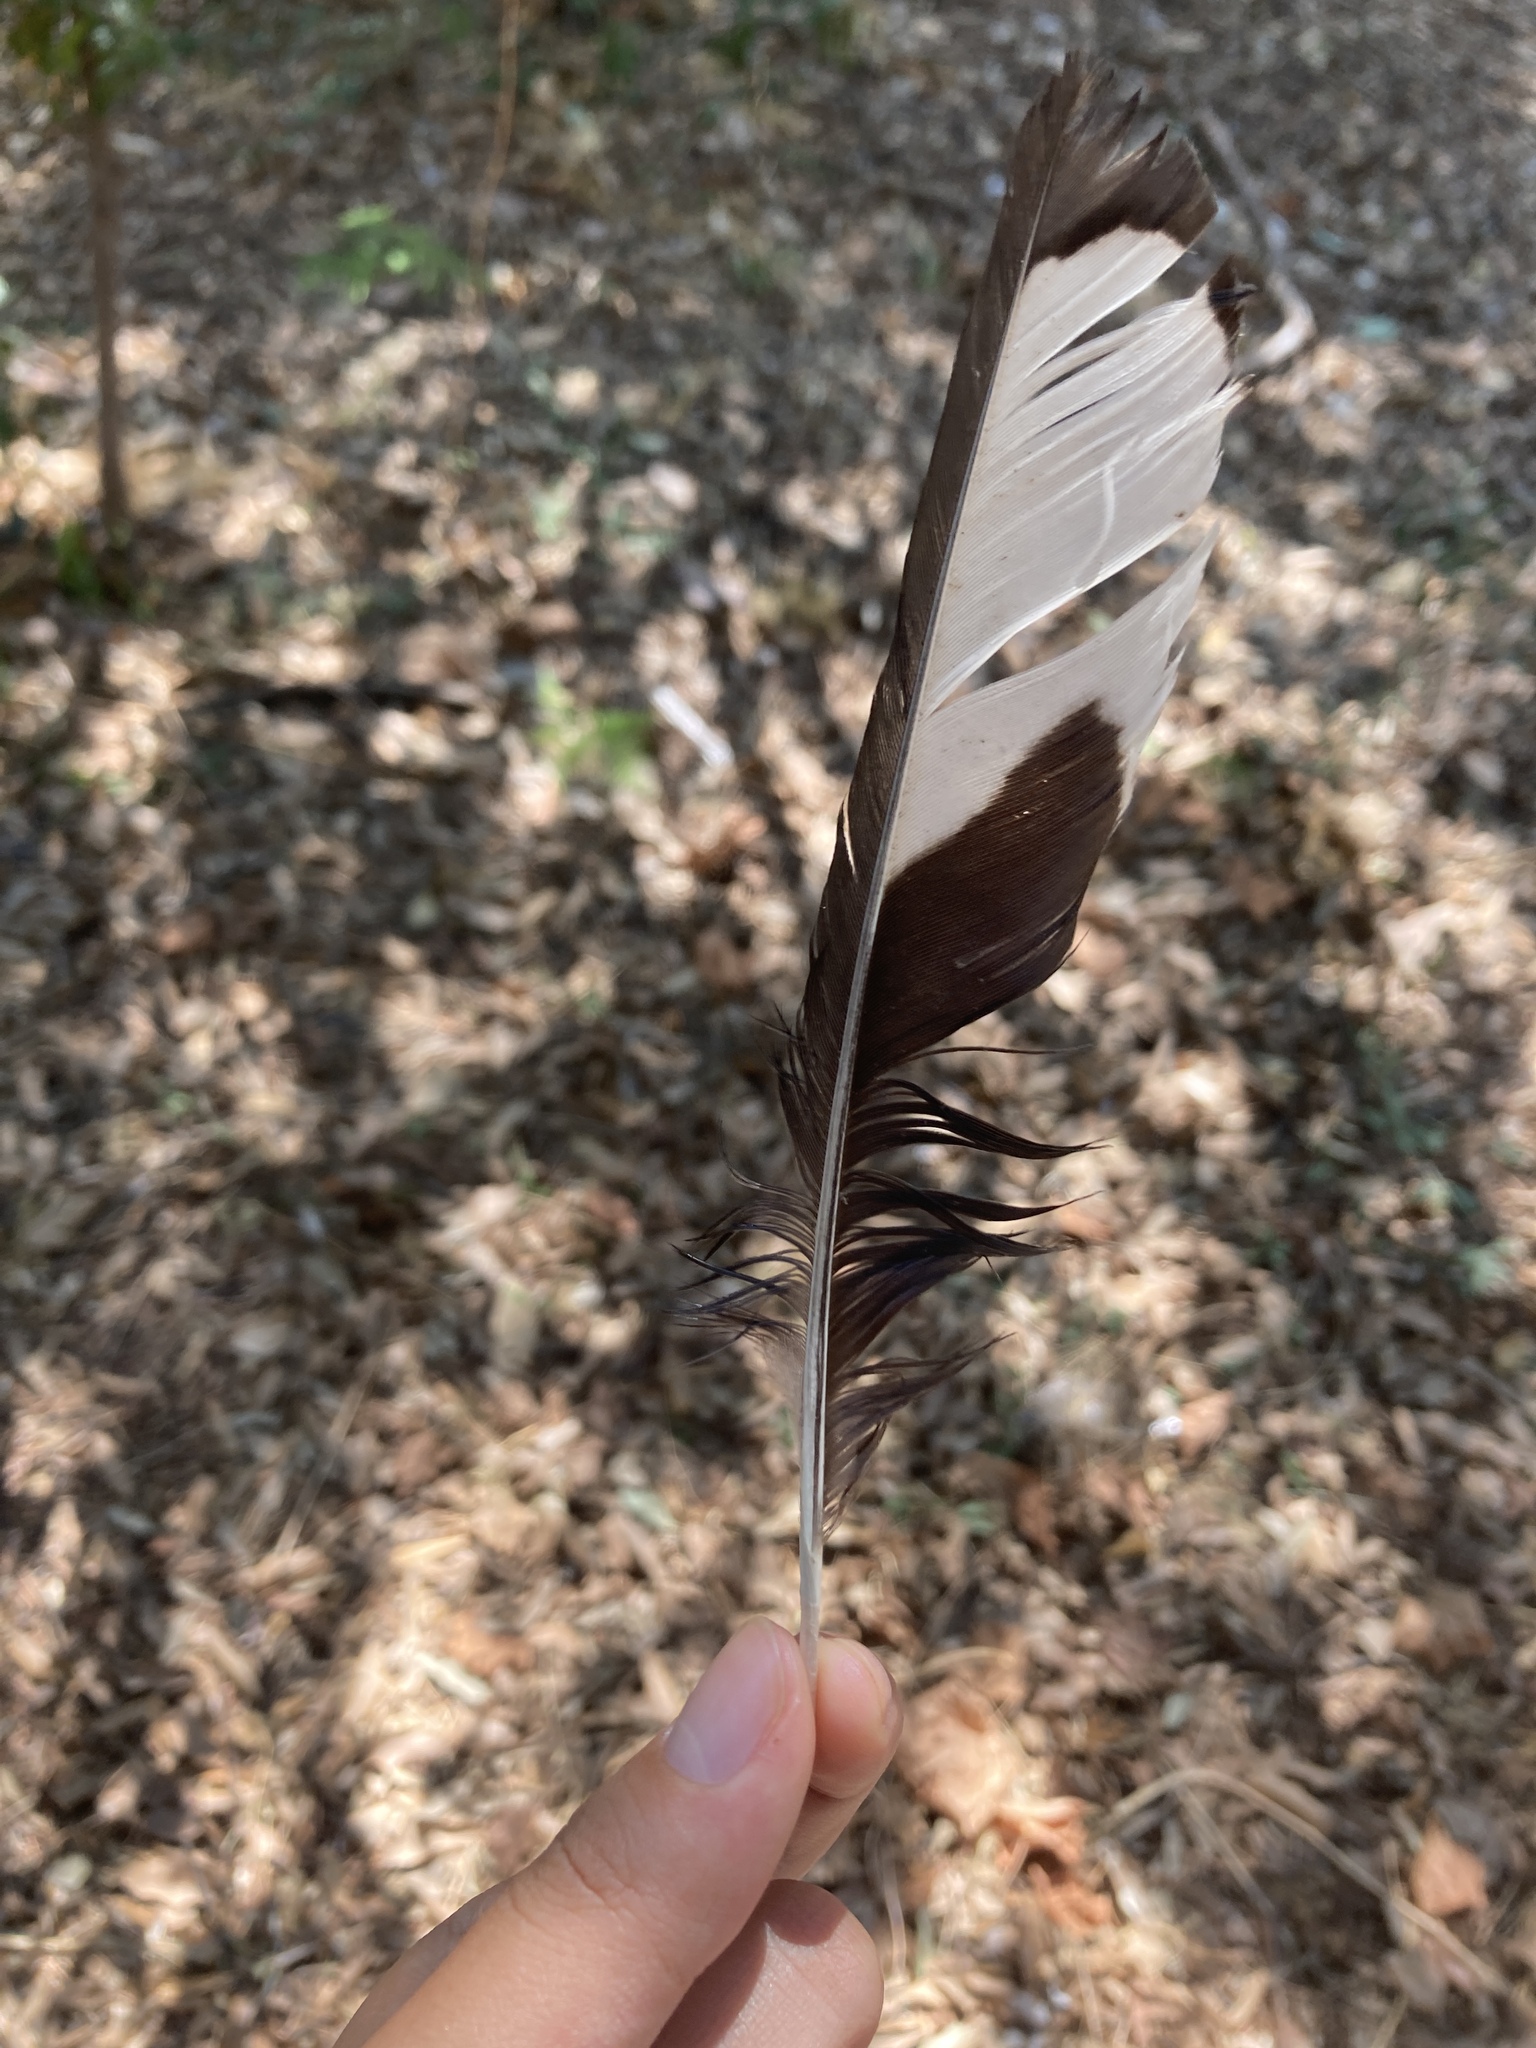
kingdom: Animalia
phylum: Chordata
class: Aves
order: Passeriformes
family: Corvidae
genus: Pica
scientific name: Pica pica
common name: Eurasian magpie
